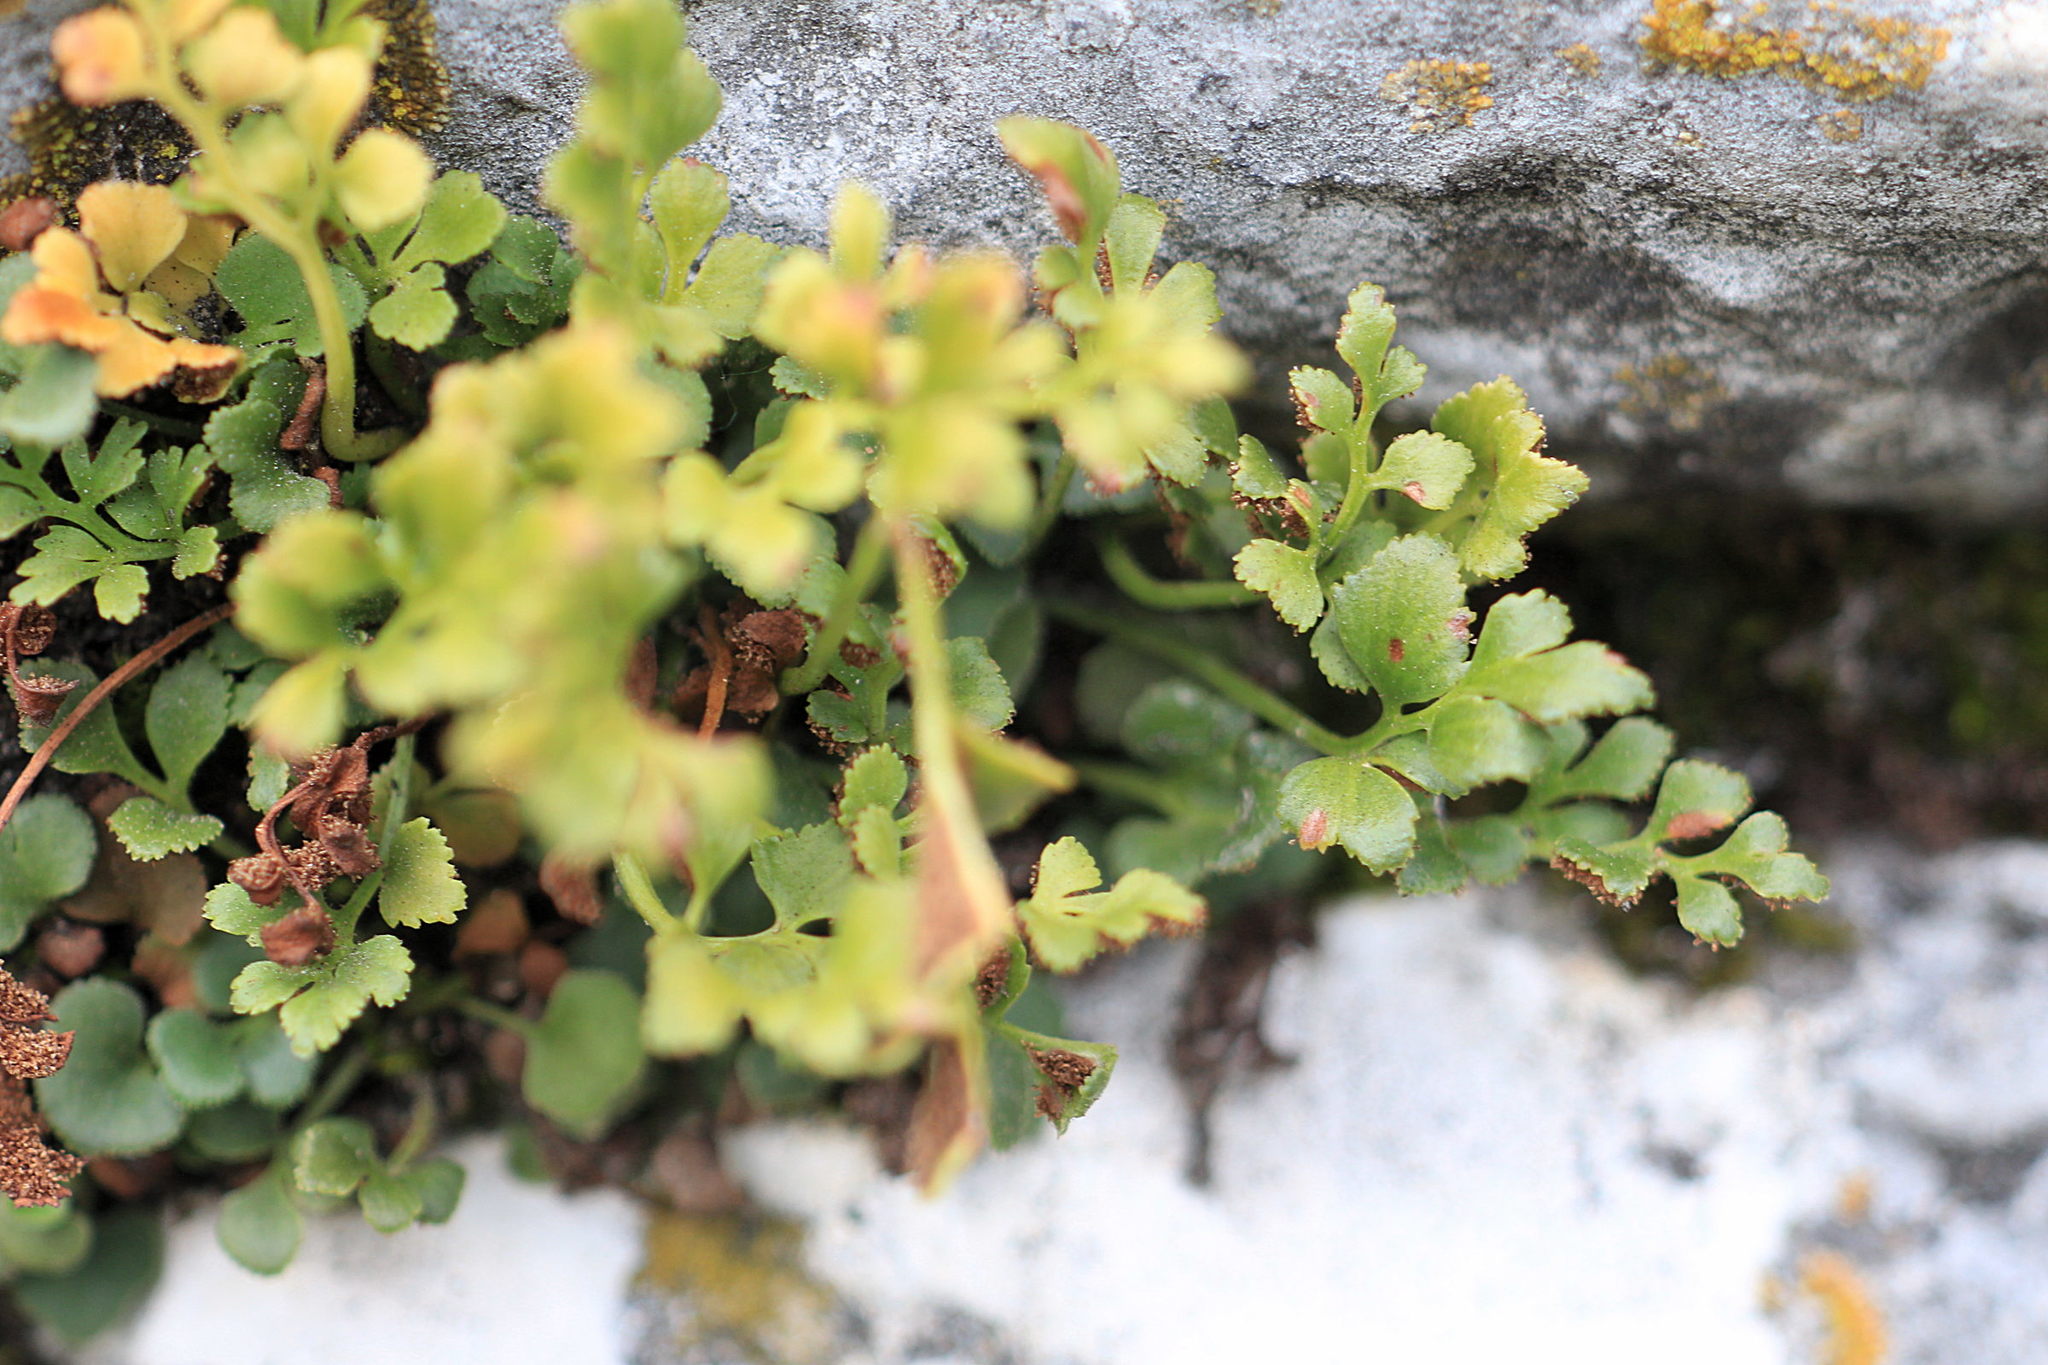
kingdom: Plantae
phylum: Tracheophyta
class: Polypodiopsida
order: Polypodiales
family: Aspleniaceae
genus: Asplenium
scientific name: Asplenium ruta-muraria
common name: Wall-rue
